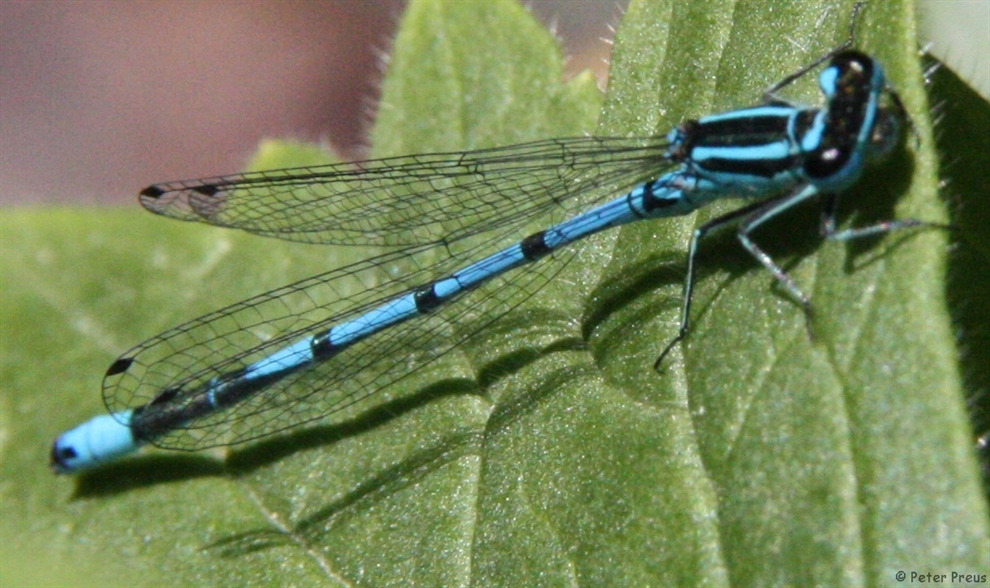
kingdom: Animalia
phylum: Arthropoda
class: Insecta
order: Odonata
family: Coenagrionidae
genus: Coenagrion
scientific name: Coenagrion puella
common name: Azure damselfly
